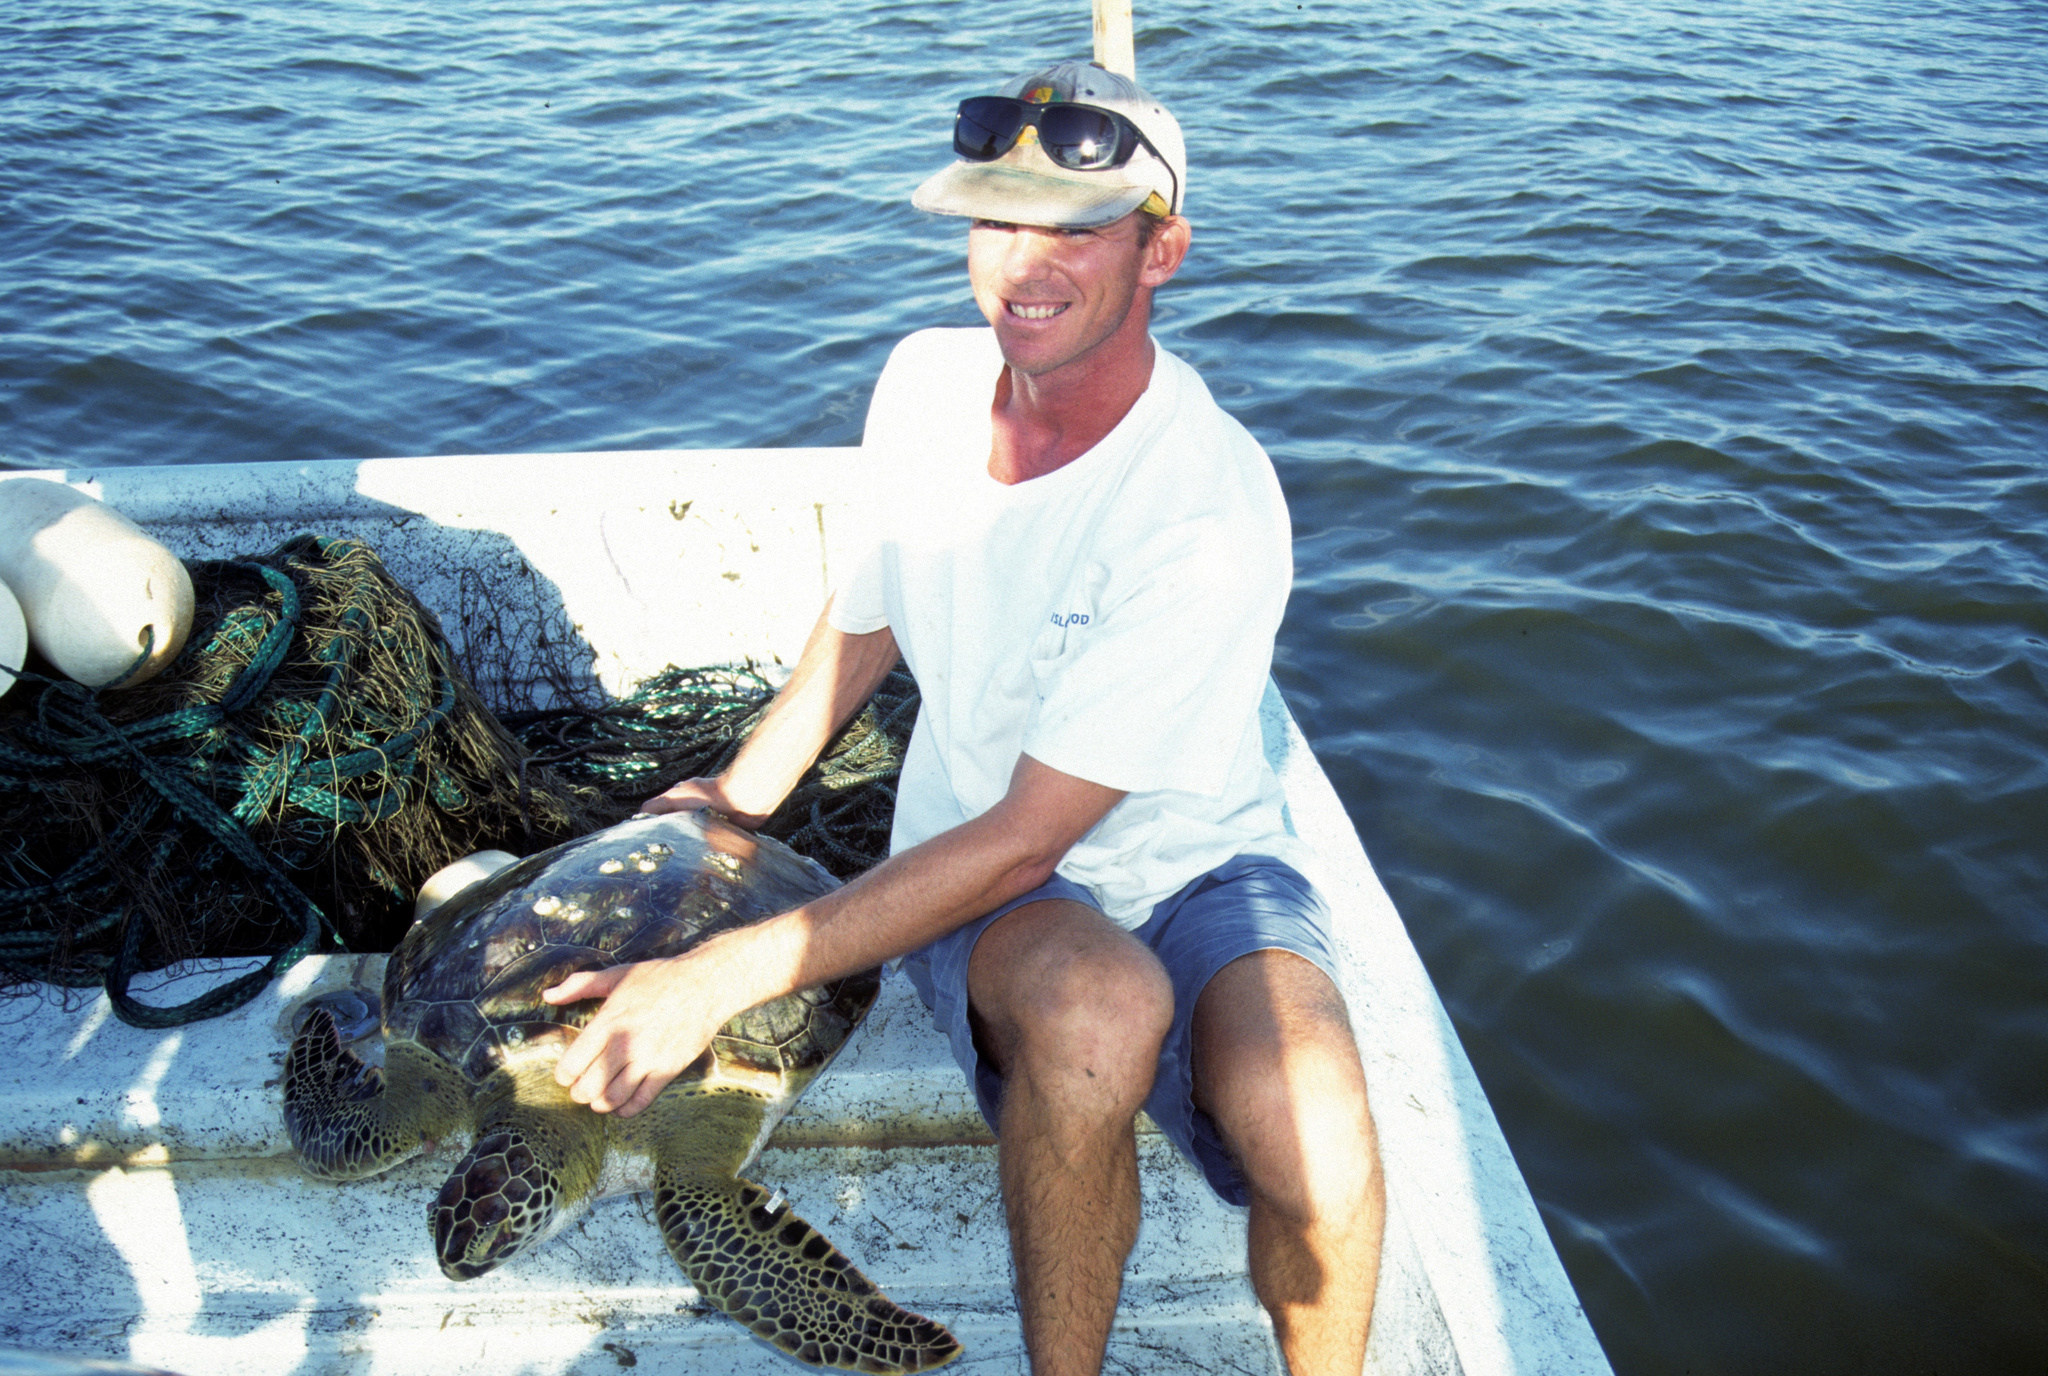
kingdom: Animalia
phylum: Chordata
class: Testudines
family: Cheloniidae
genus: Chelonia
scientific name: Chelonia mydas
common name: Green turtle
